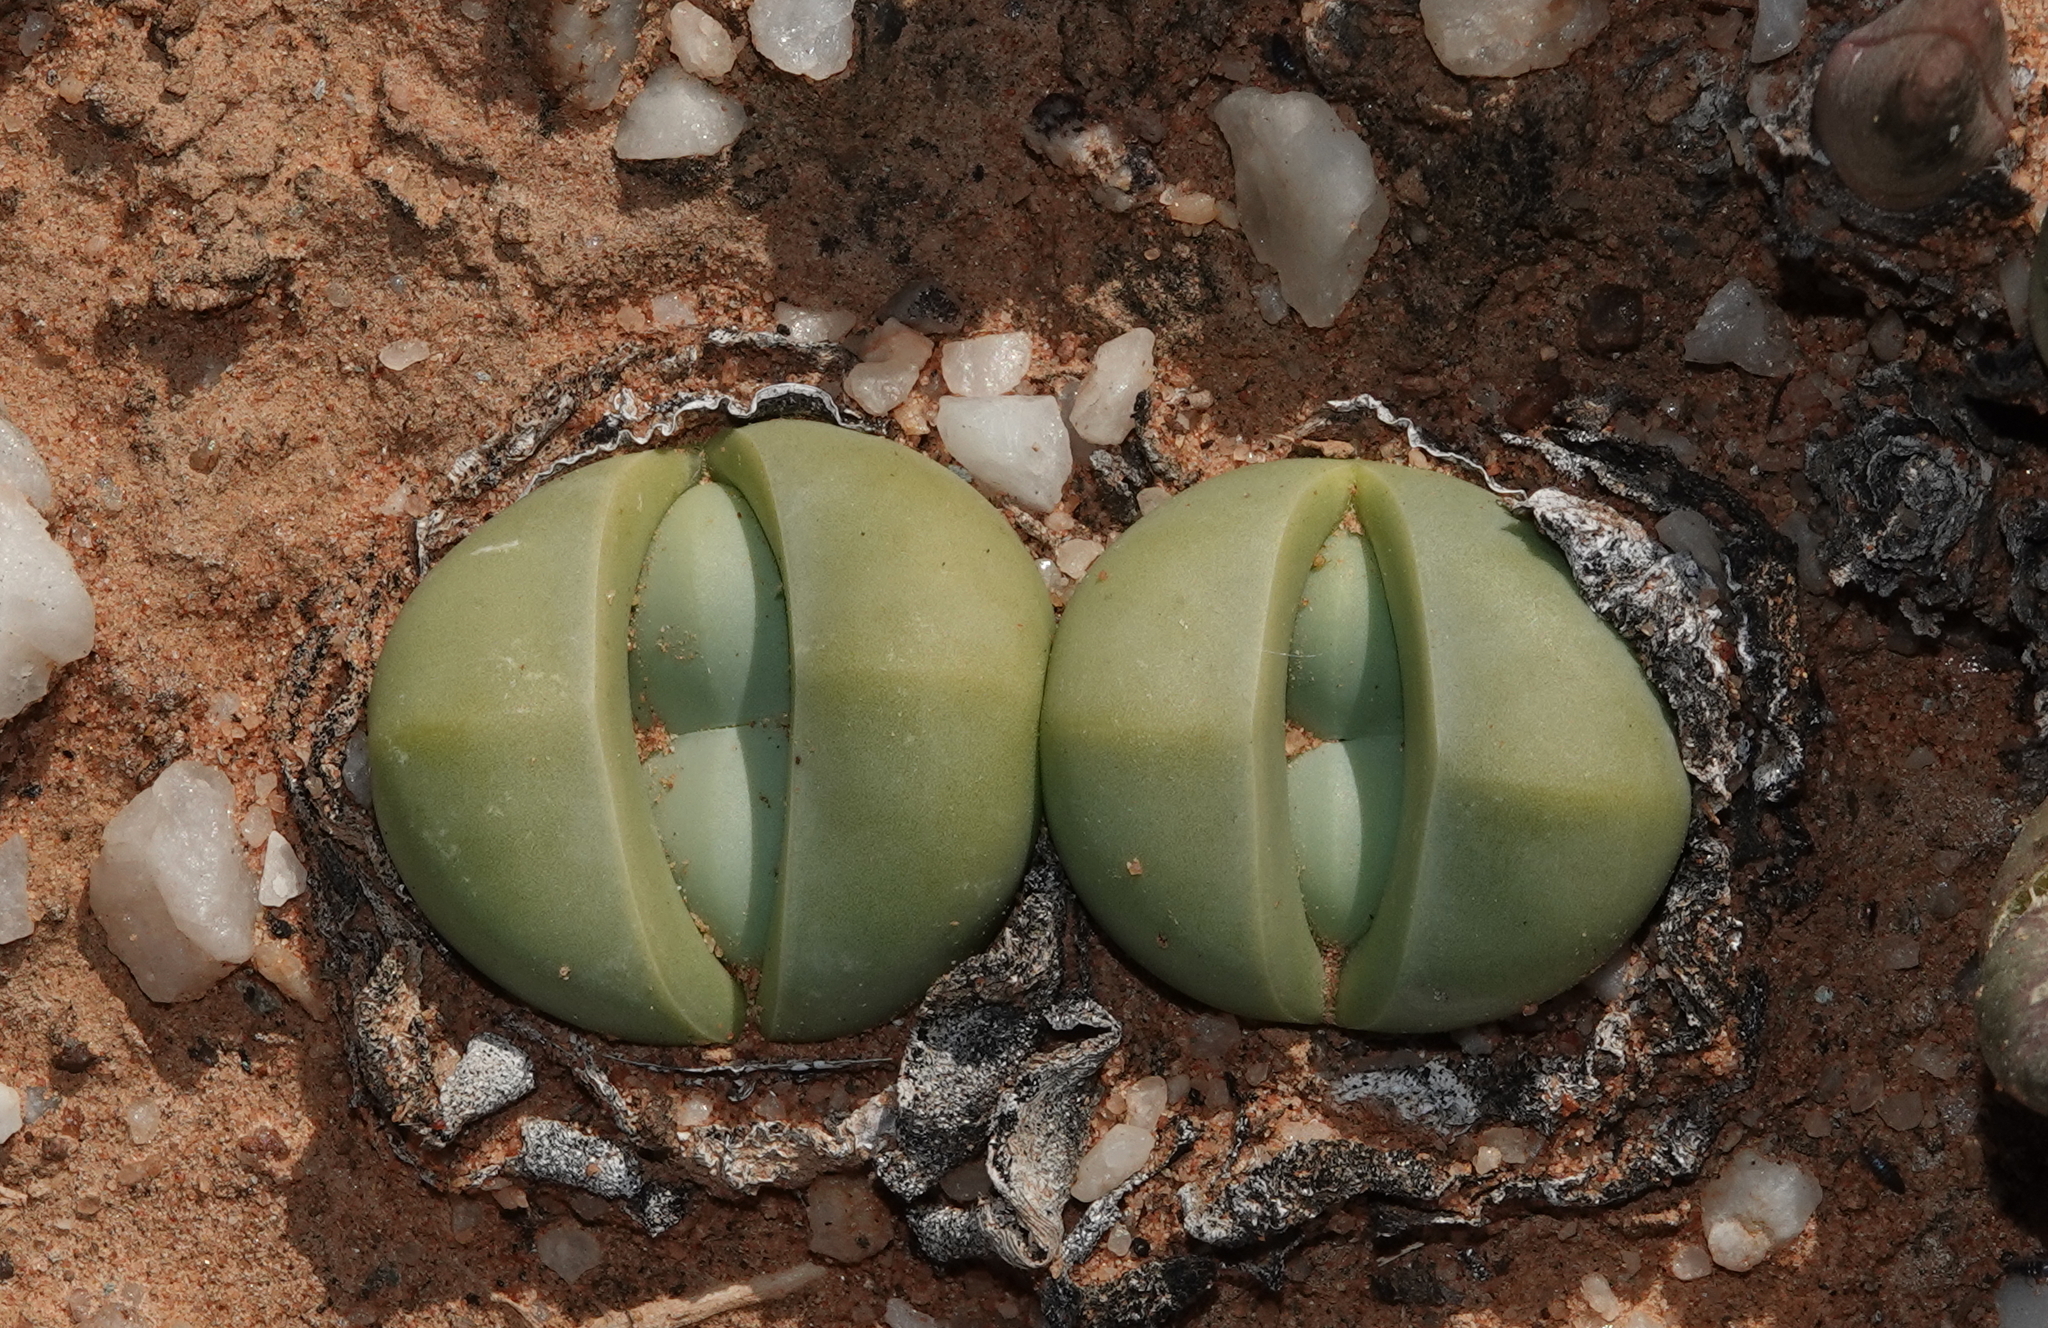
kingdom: Plantae
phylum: Tracheophyta
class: Magnoliopsida
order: Caryophyllales
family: Aizoaceae
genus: Argyroderma
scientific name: Argyroderma delaetii
